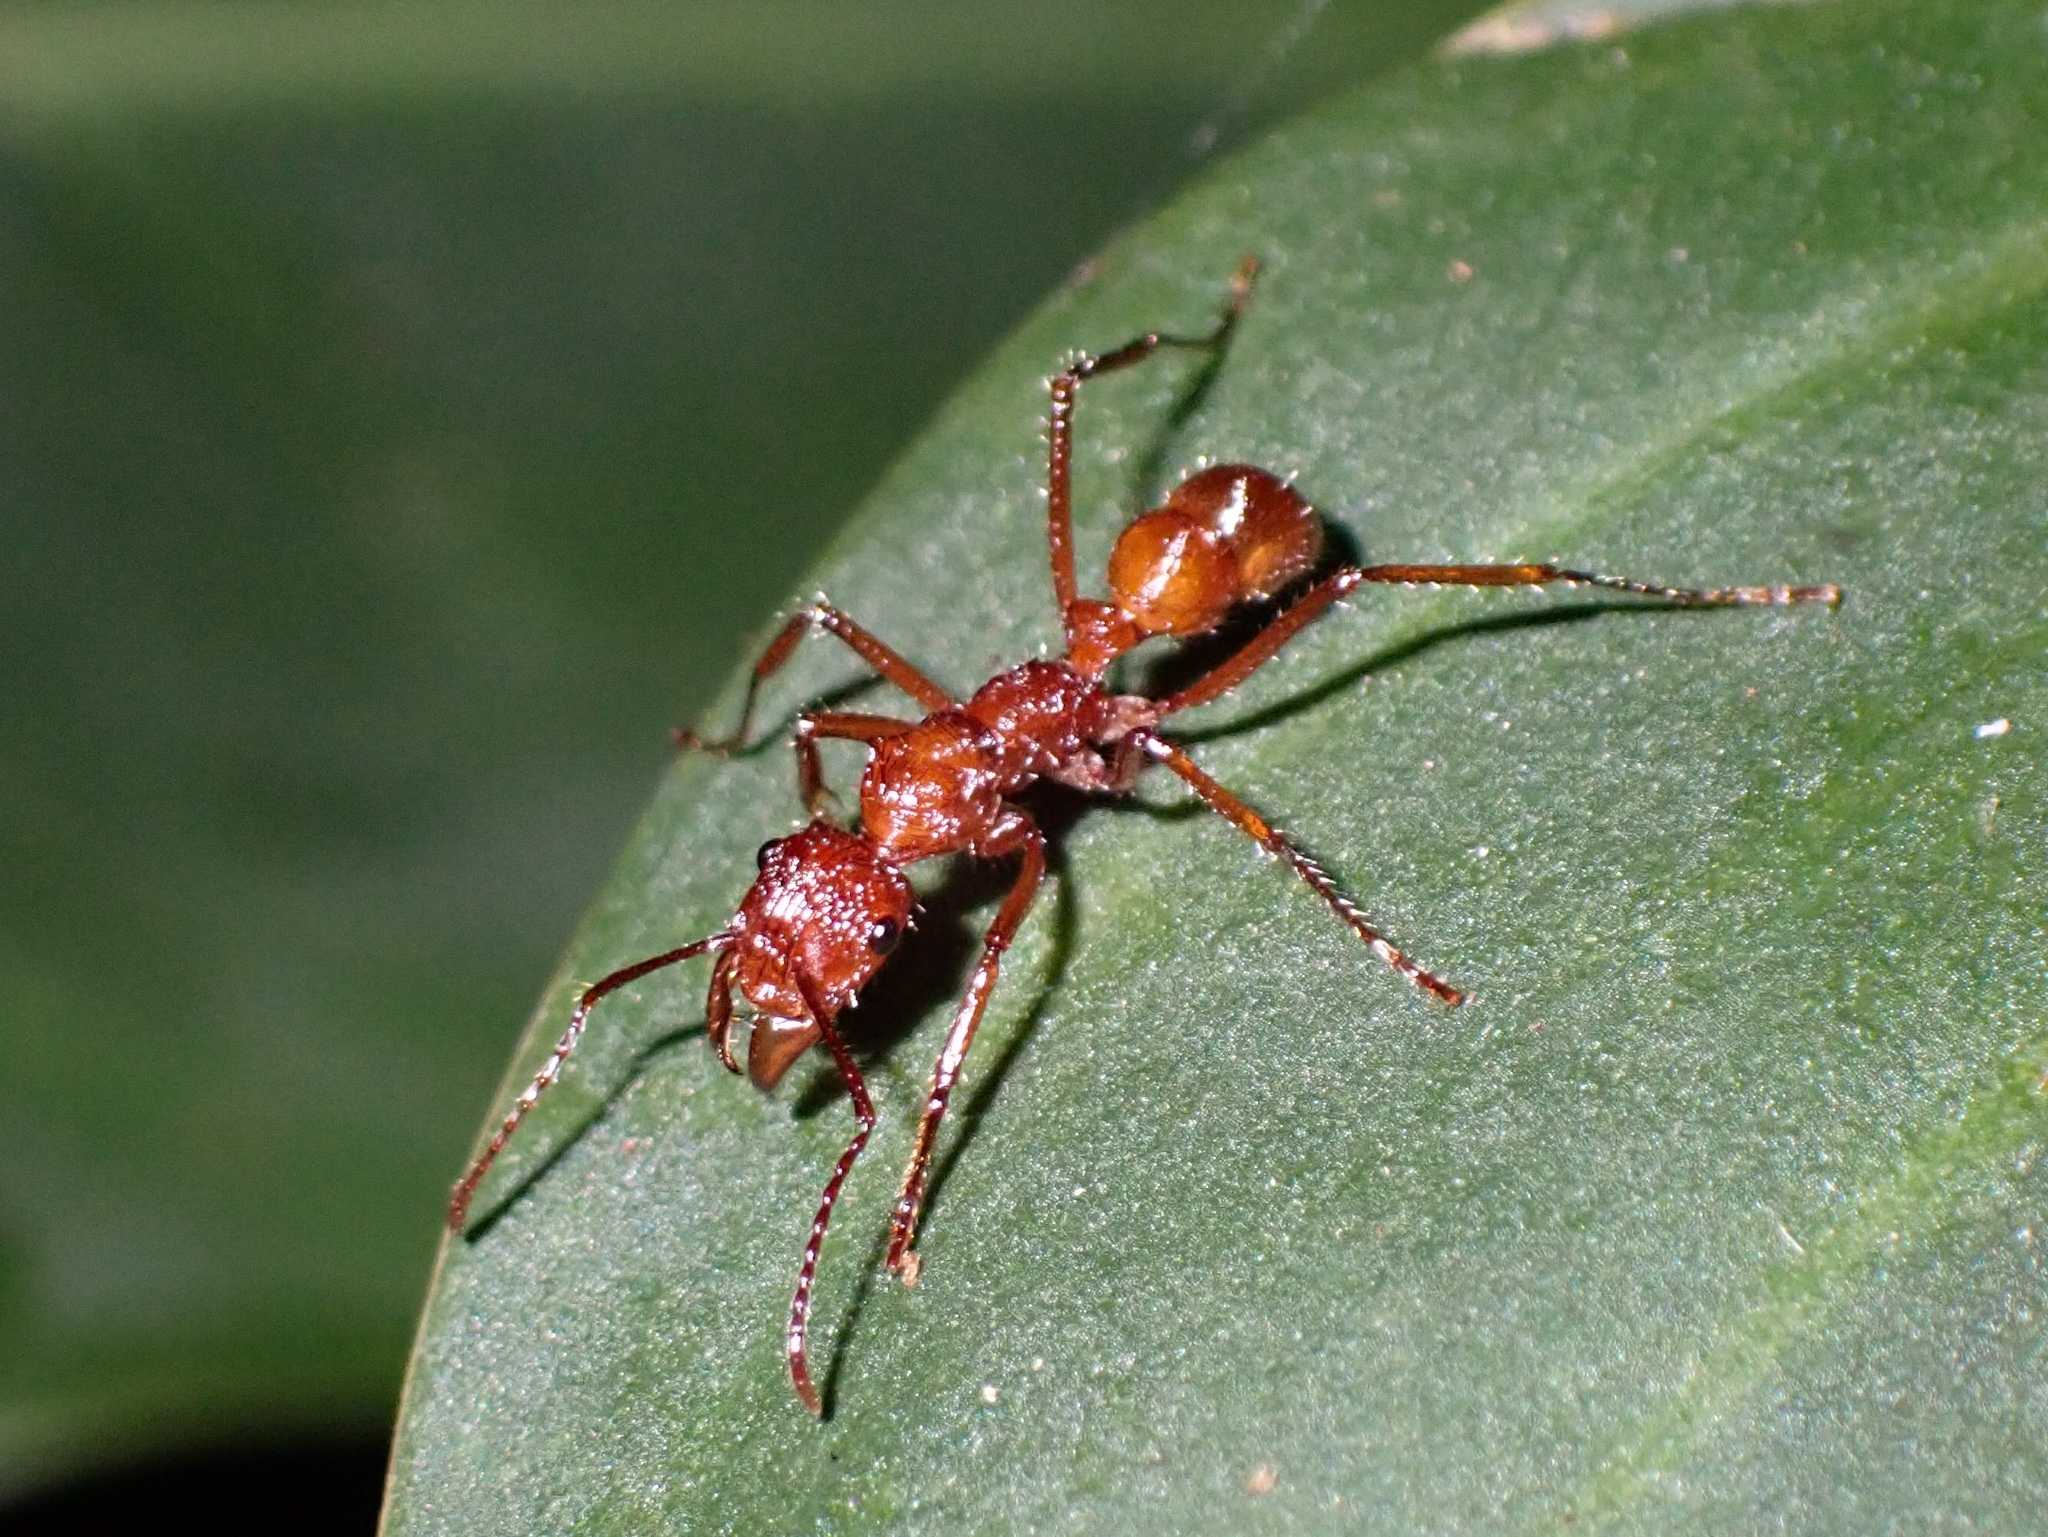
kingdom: Animalia
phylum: Arthropoda
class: Insecta
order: Hymenoptera
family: Formicidae
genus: Ectatomma
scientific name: Ectatomma tuberculatum
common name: Ant
